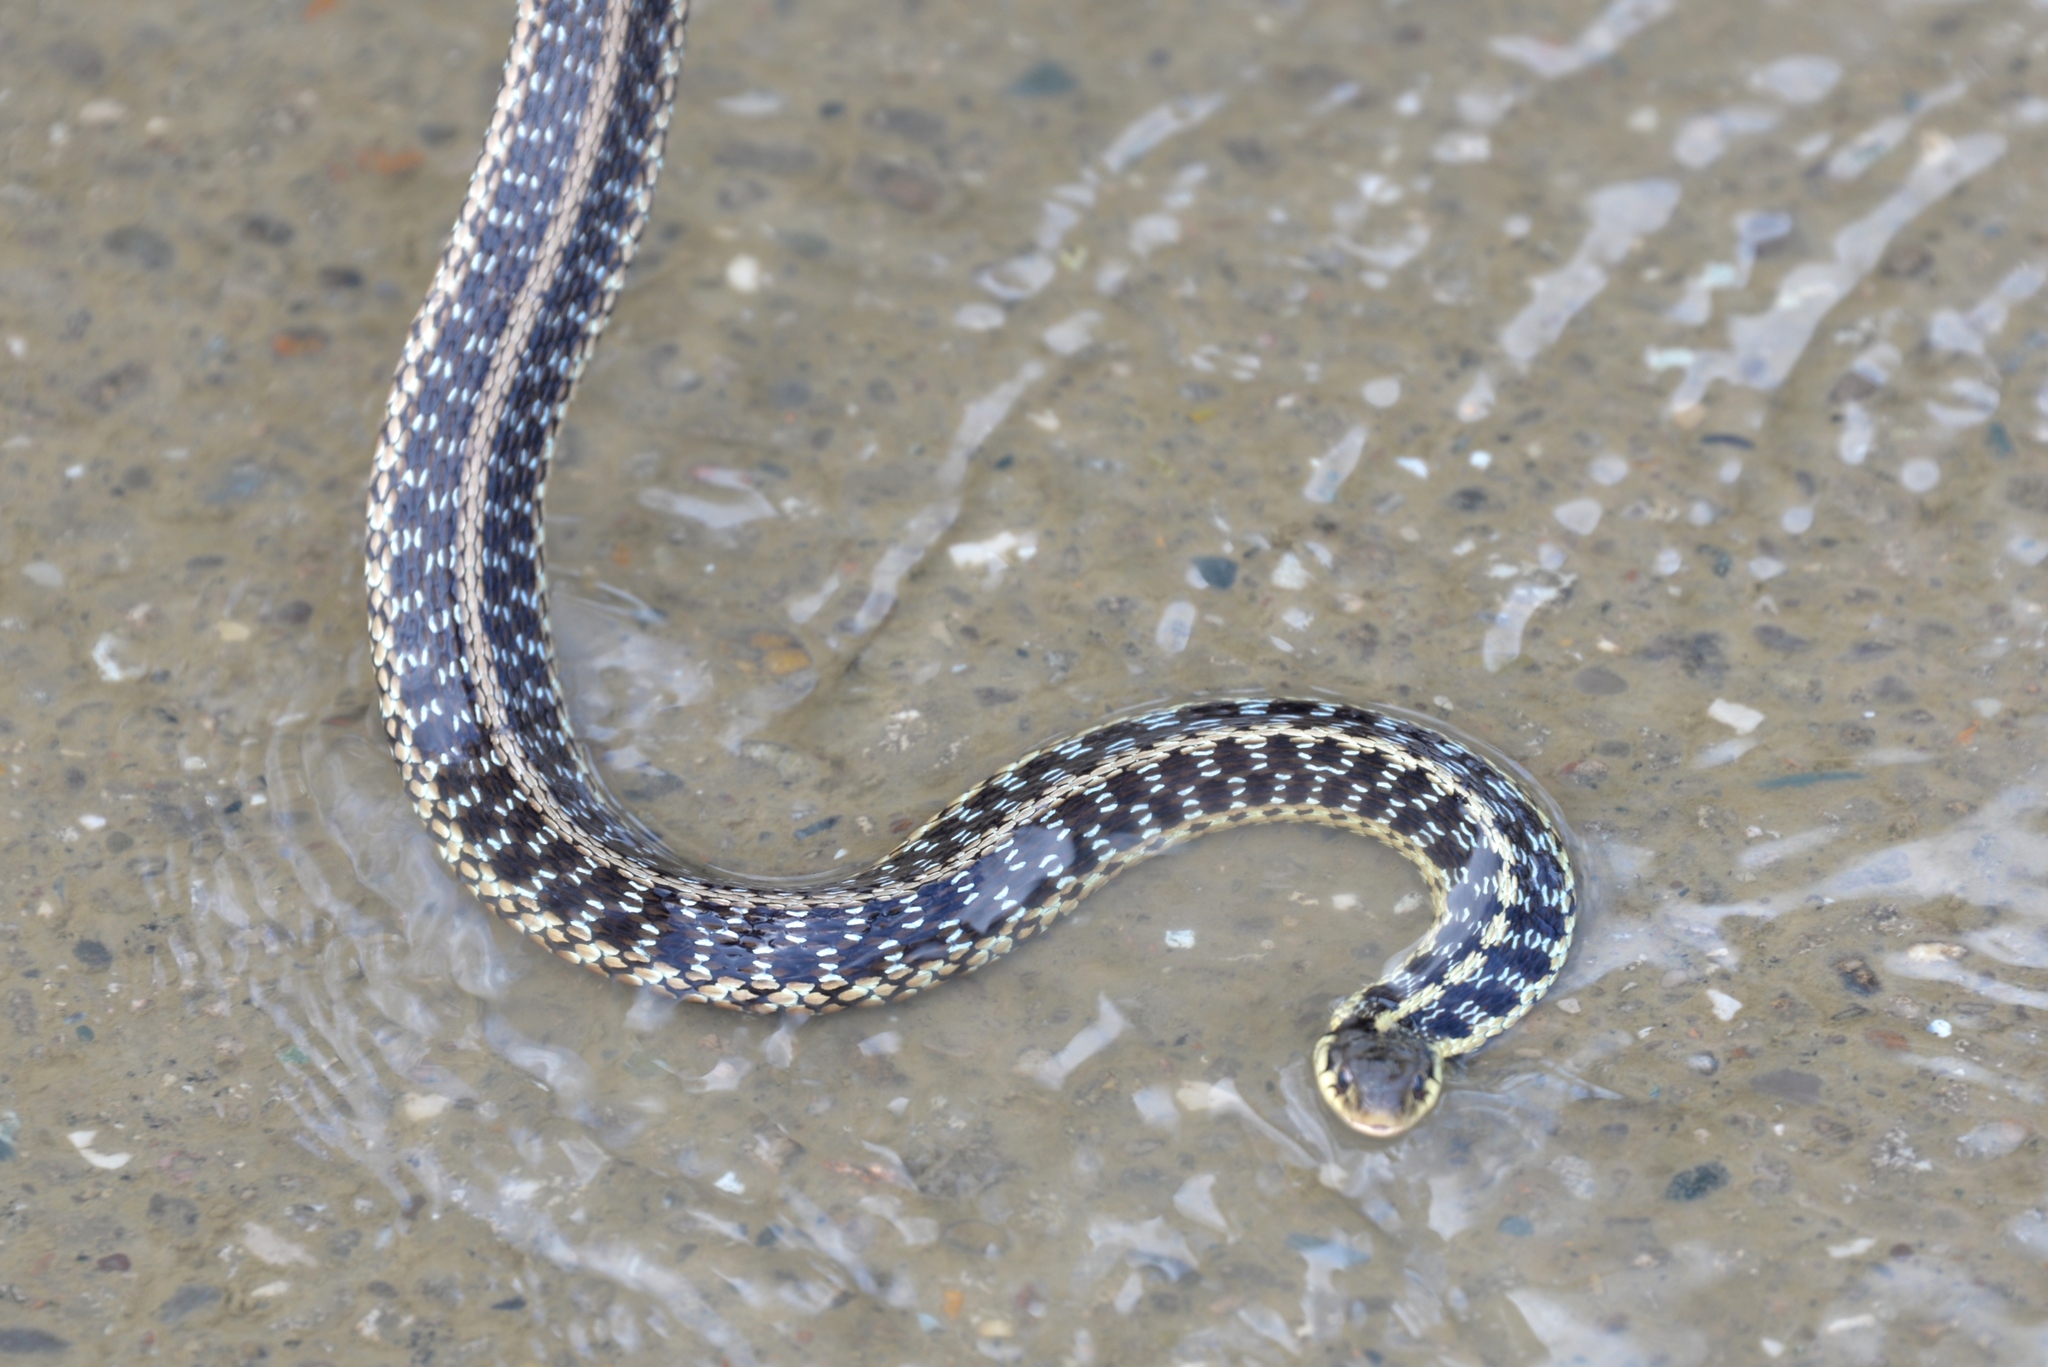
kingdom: Animalia
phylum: Chordata
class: Squamata
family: Colubridae
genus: Thamnophis
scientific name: Thamnophis sirtalis
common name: Common garter snake
